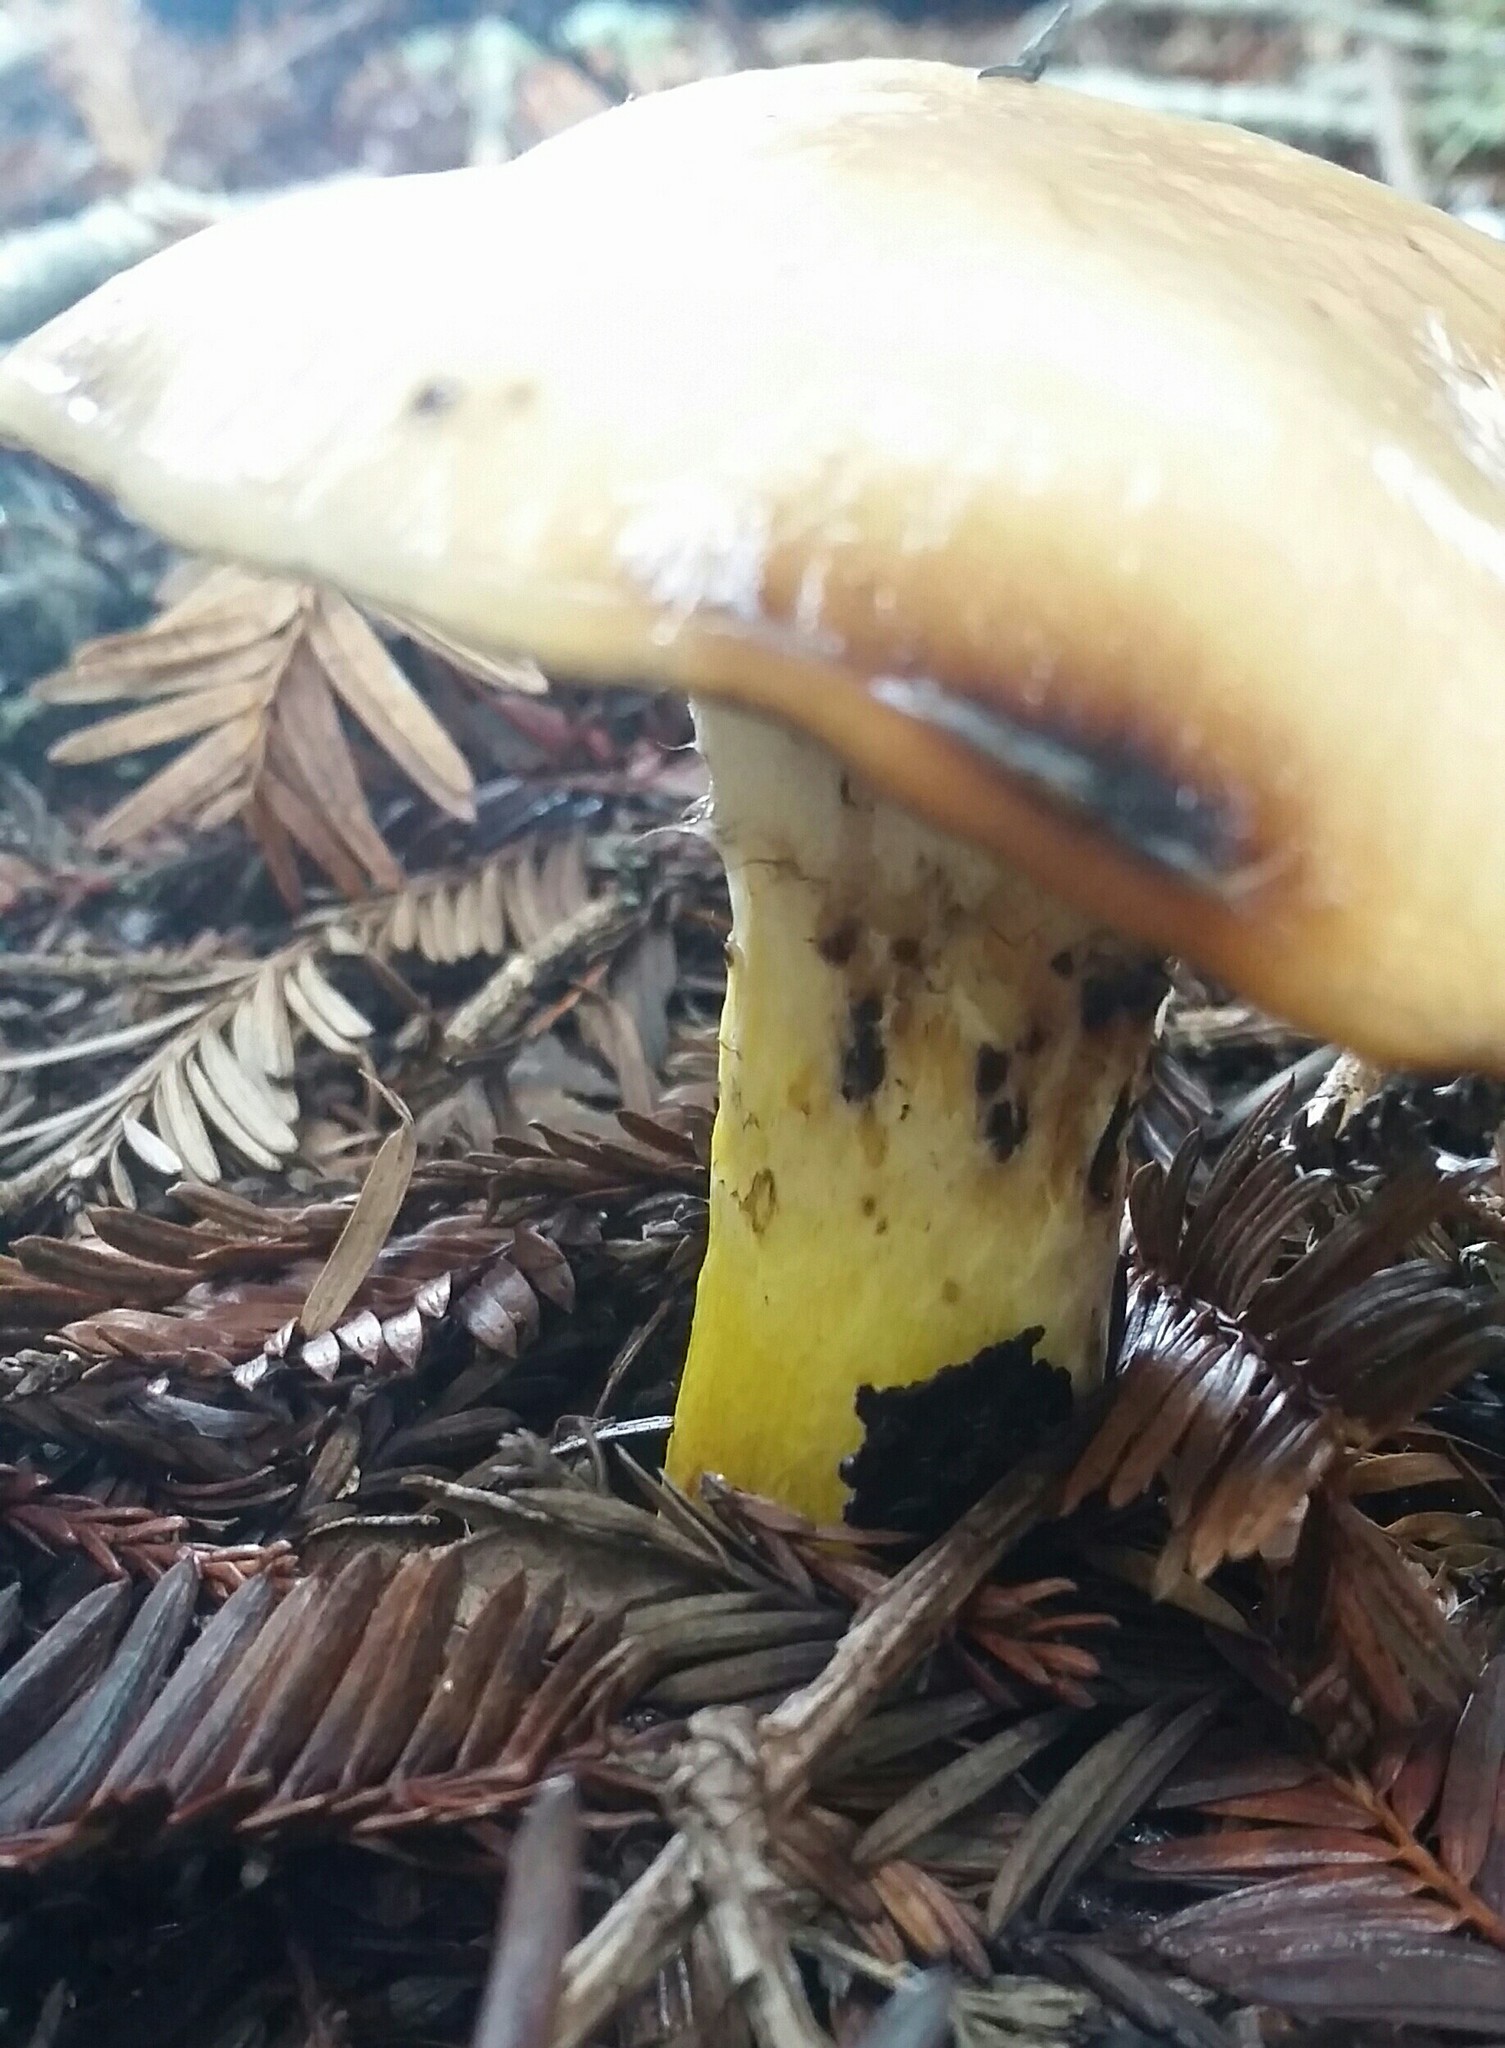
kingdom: Fungi
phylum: Basidiomycota
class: Agaricomycetes
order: Boletales
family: Gomphidiaceae
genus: Gomphidius
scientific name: Gomphidius oregonensis
